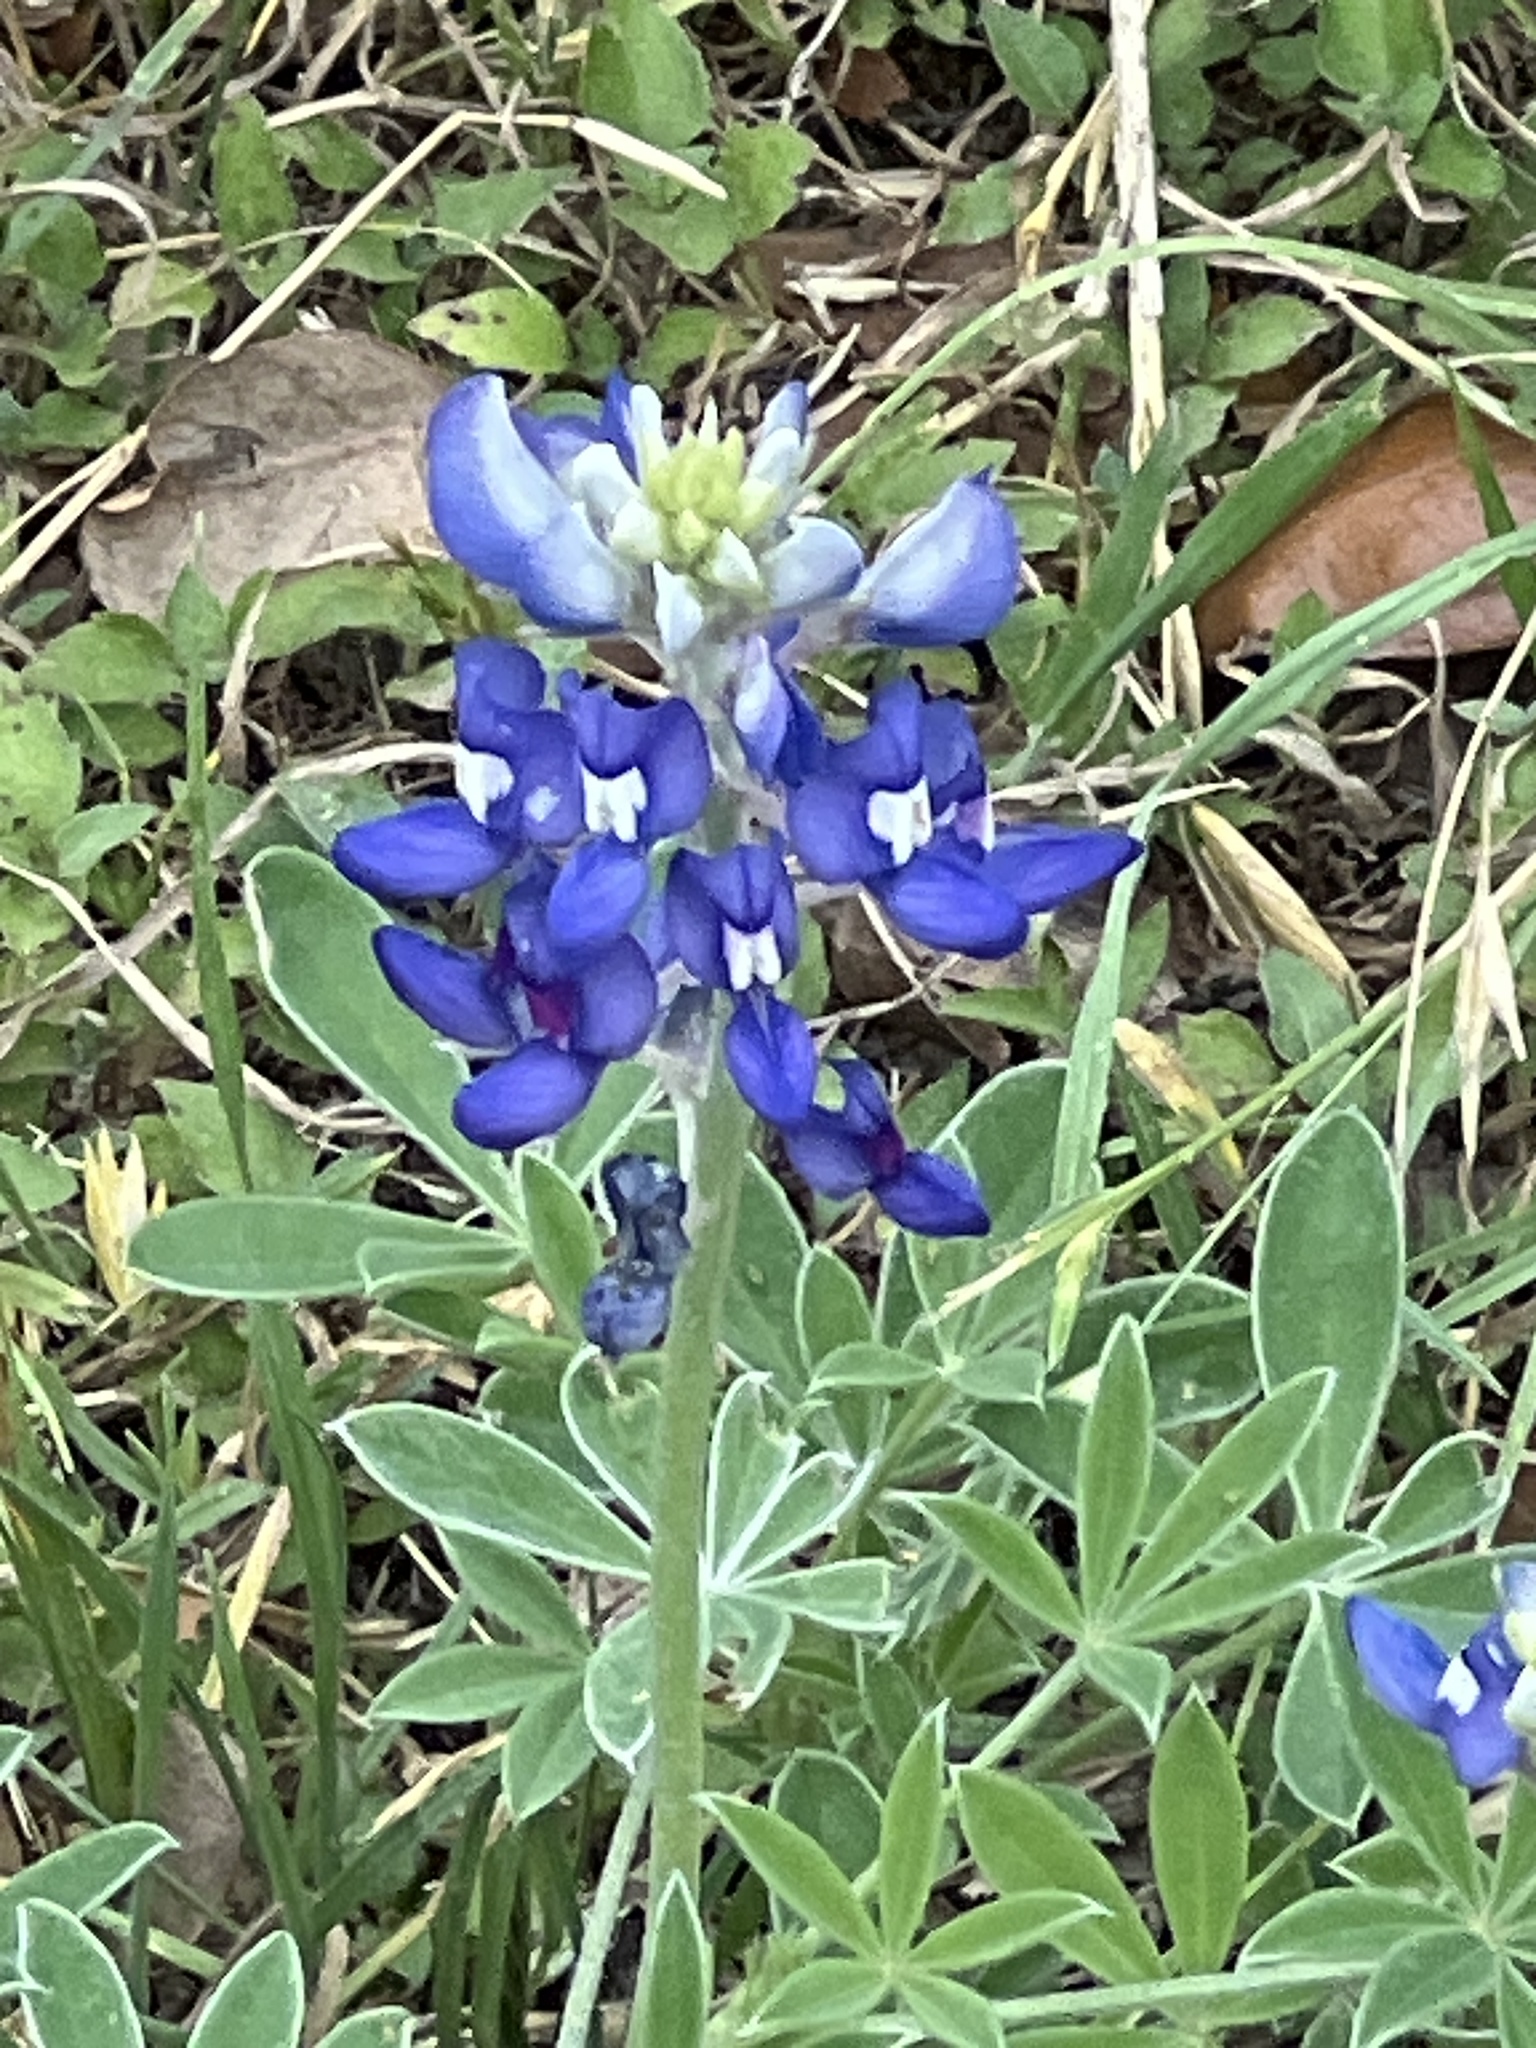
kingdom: Plantae
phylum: Tracheophyta
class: Magnoliopsida
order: Fabales
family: Fabaceae
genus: Lupinus
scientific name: Lupinus texensis
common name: Texas bluebonnet
